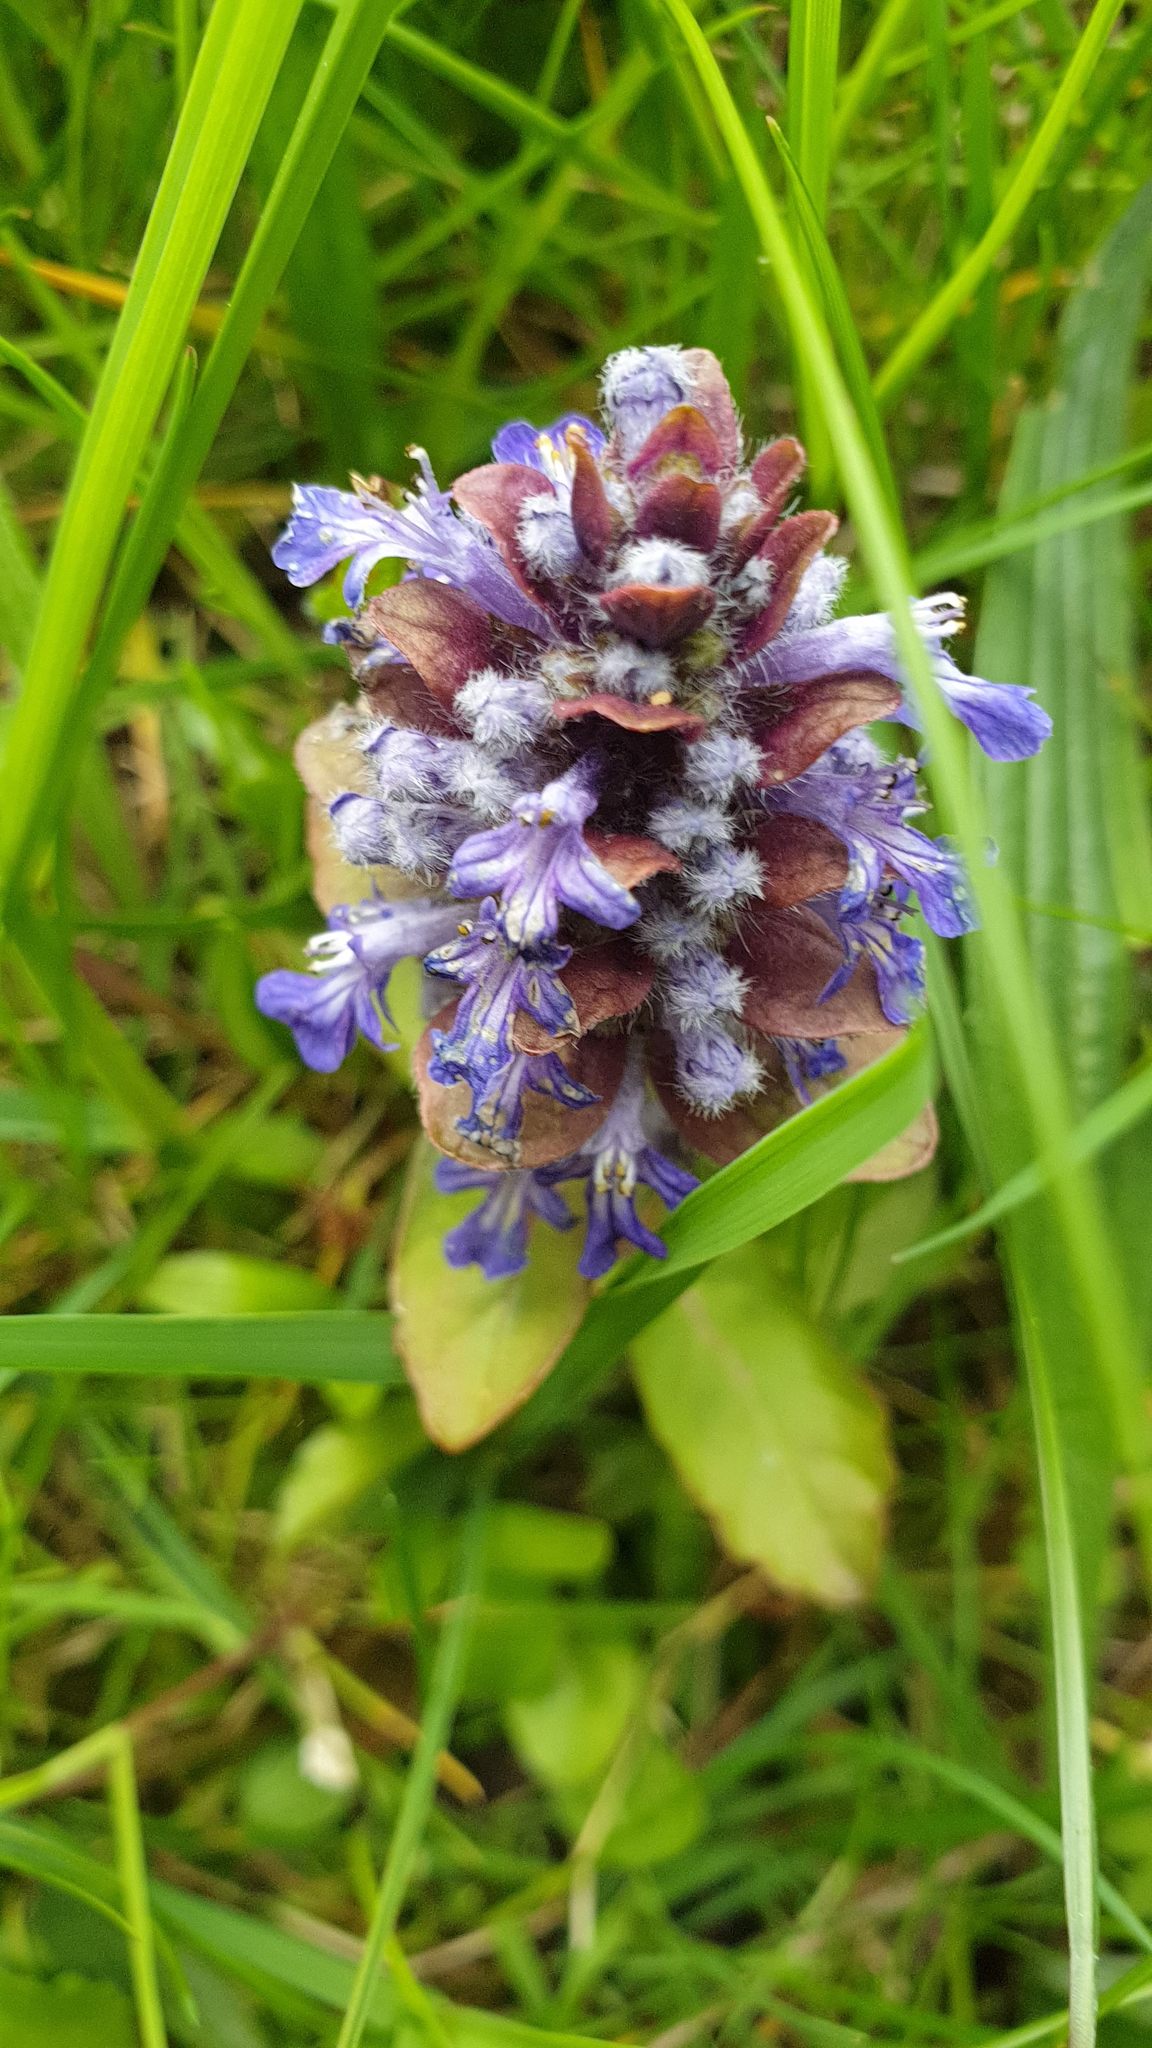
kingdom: Plantae
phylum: Tracheophyta
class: Magnoliopsida
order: Lamiales
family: Lamiaceae
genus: Ajuga
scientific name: Ajuga reptans
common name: Bugle
